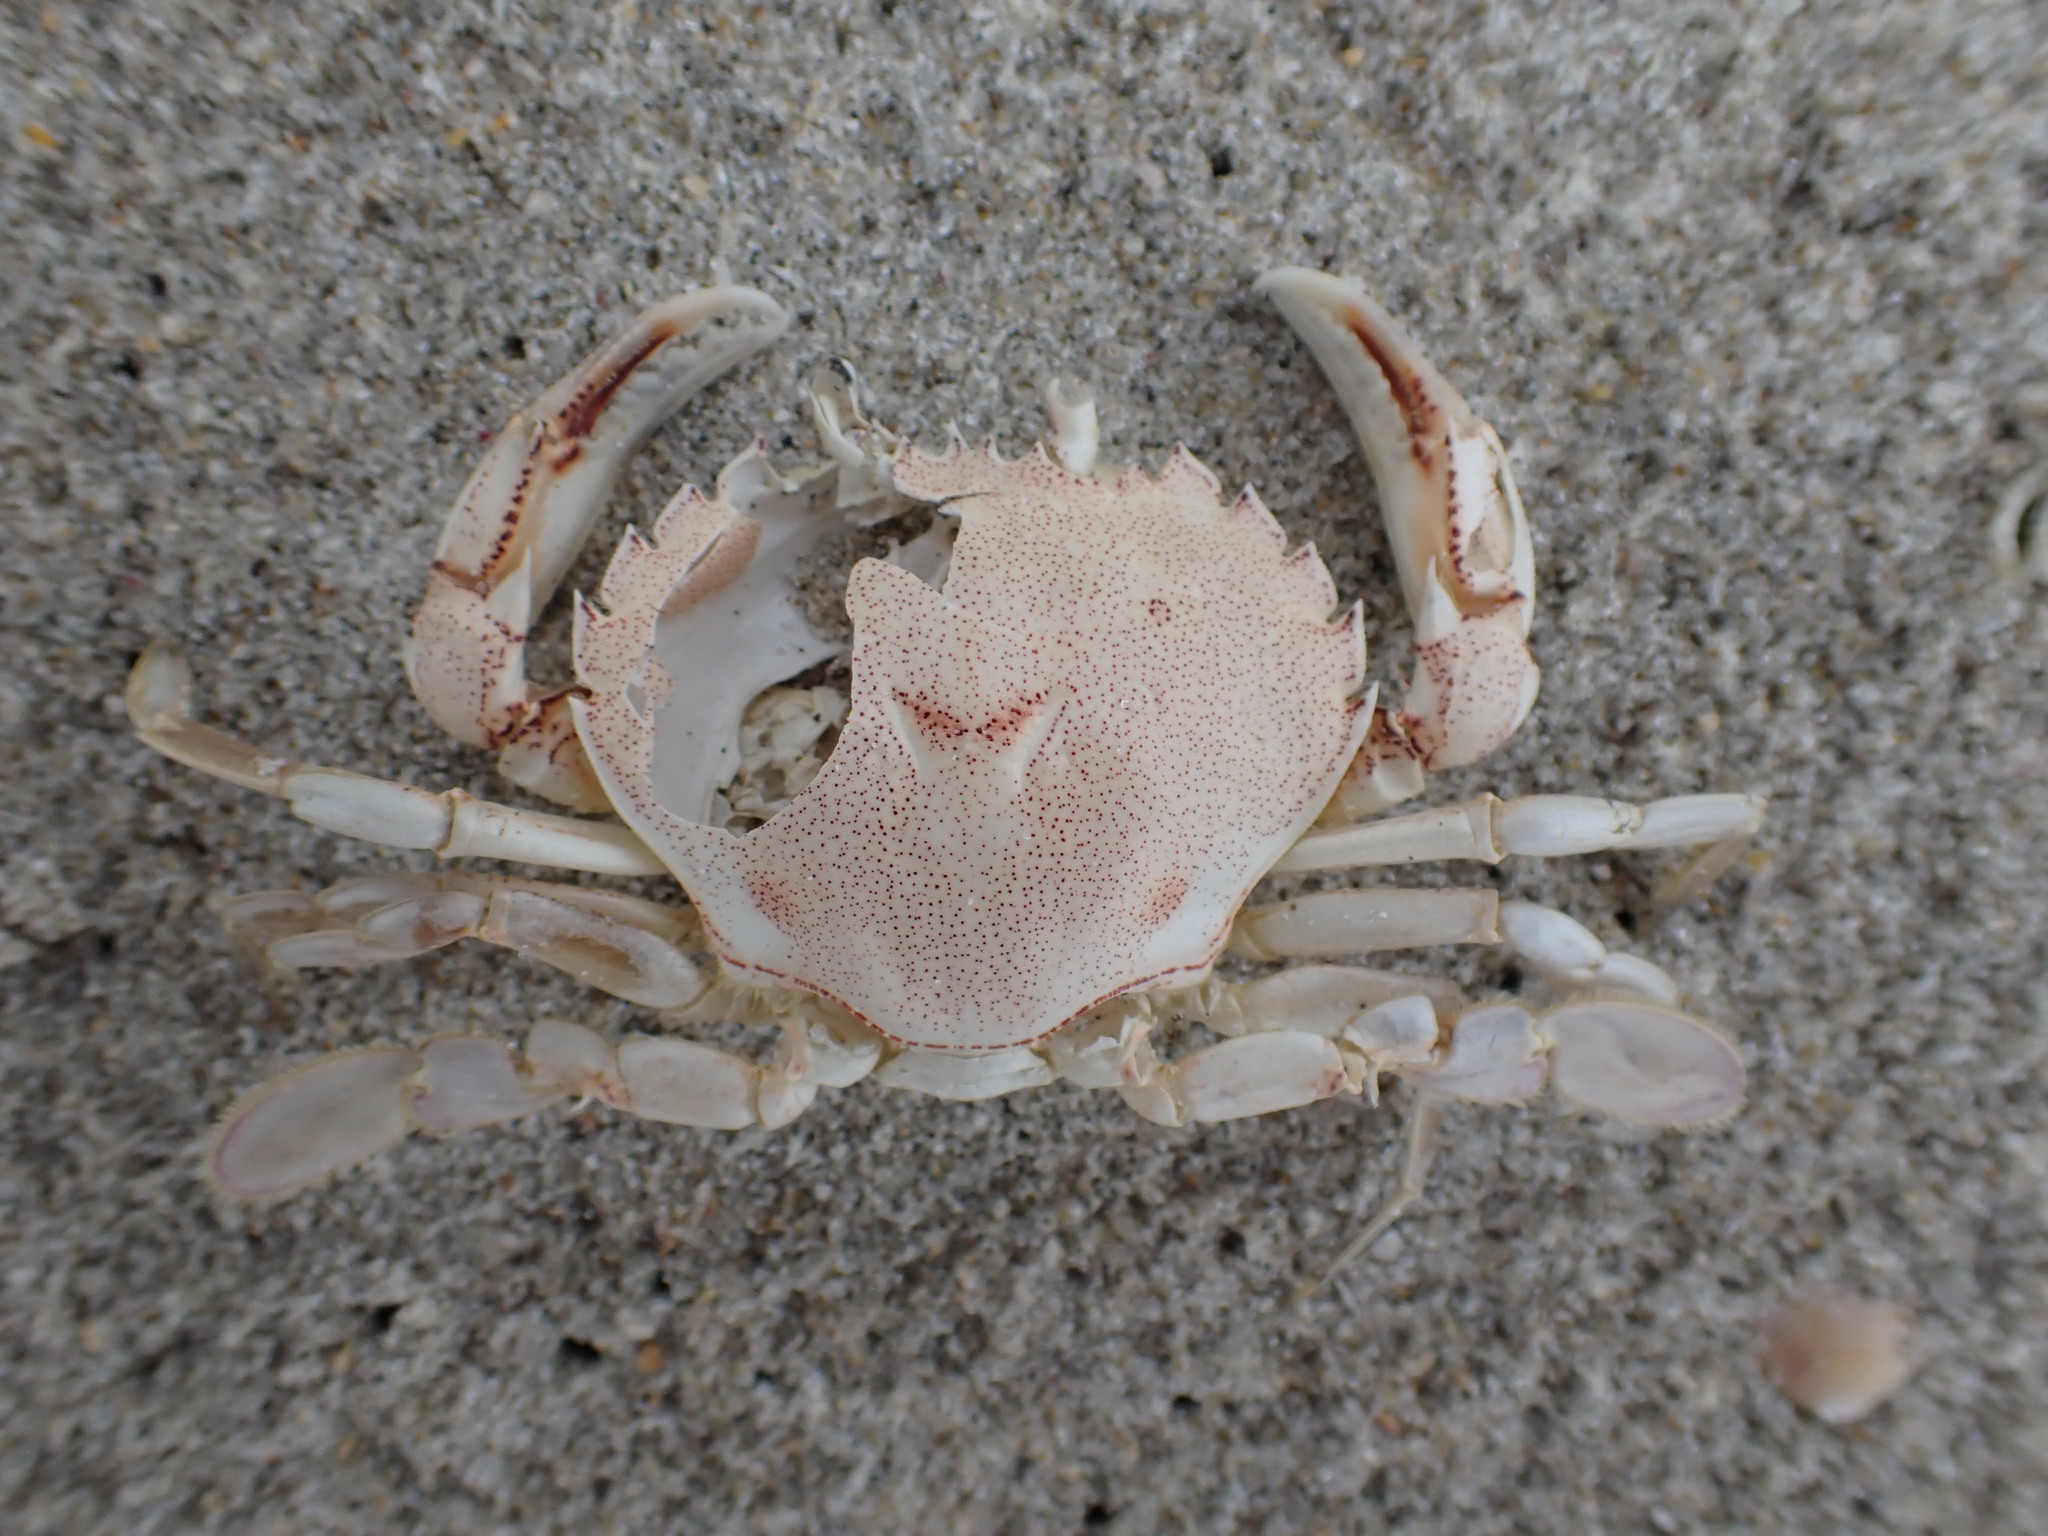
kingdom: Animalia
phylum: Arthropoda
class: Malacostraca
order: Decapoda
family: Ovalipidae
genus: Ovalipes
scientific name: Ovalipes catharus
